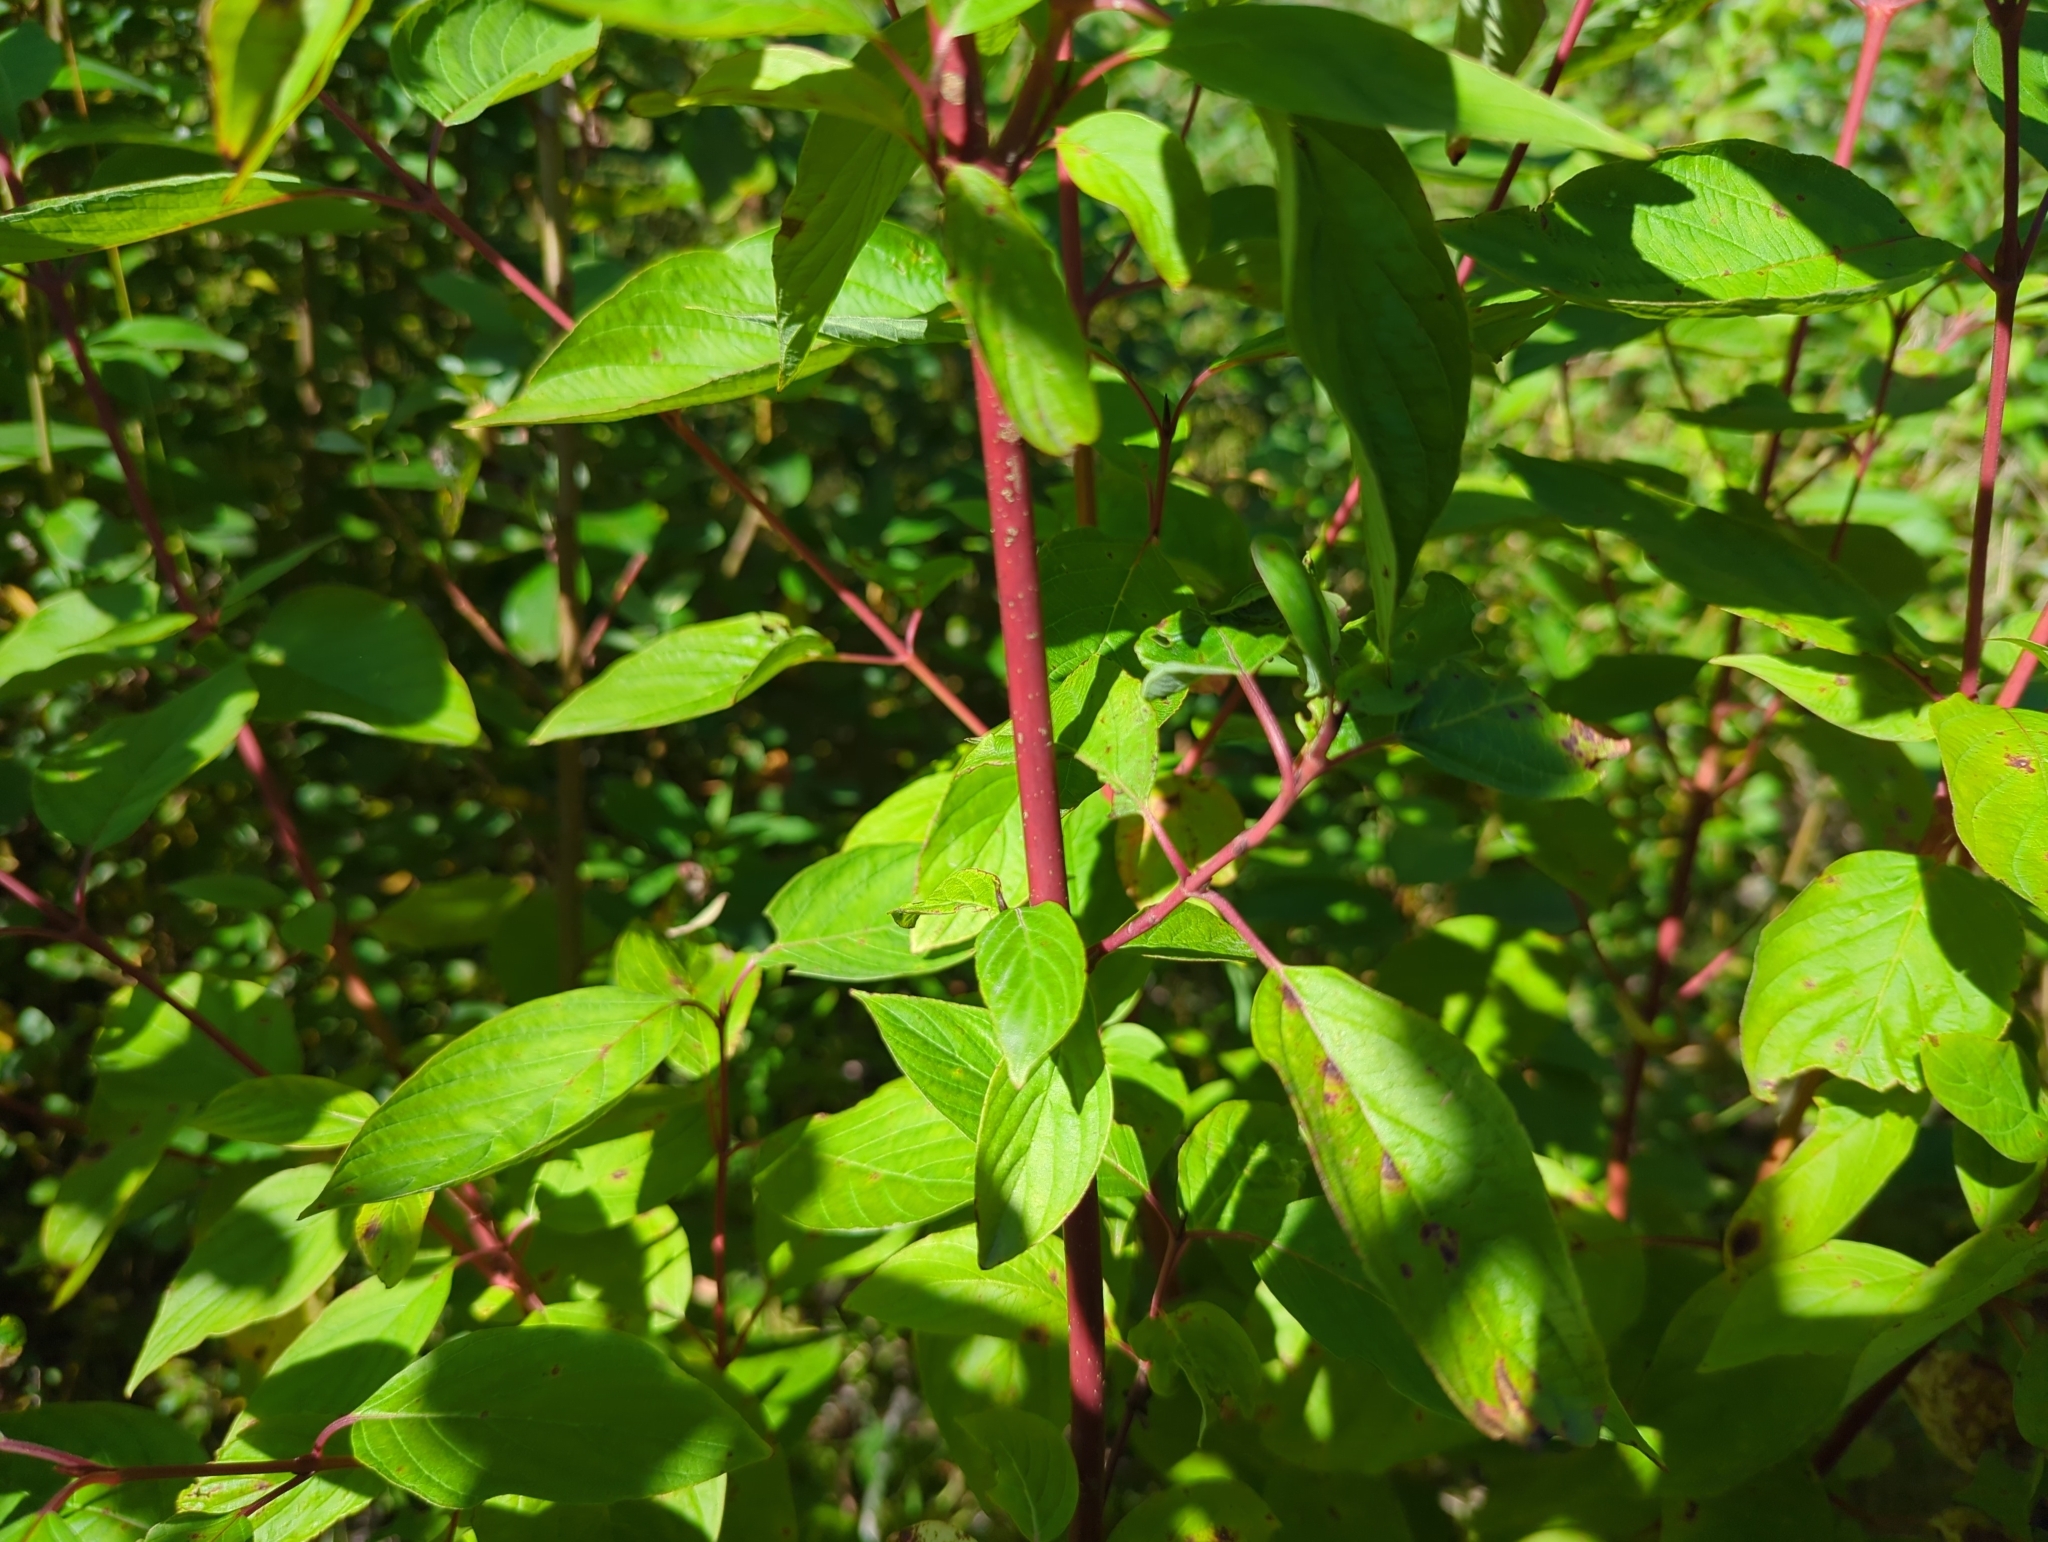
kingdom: Plantae
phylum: Tracheophyta
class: Magnoliopsida
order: Cornales
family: Cornaceae
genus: Cornus
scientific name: Cornus sericea
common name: Red-osier dogwood
